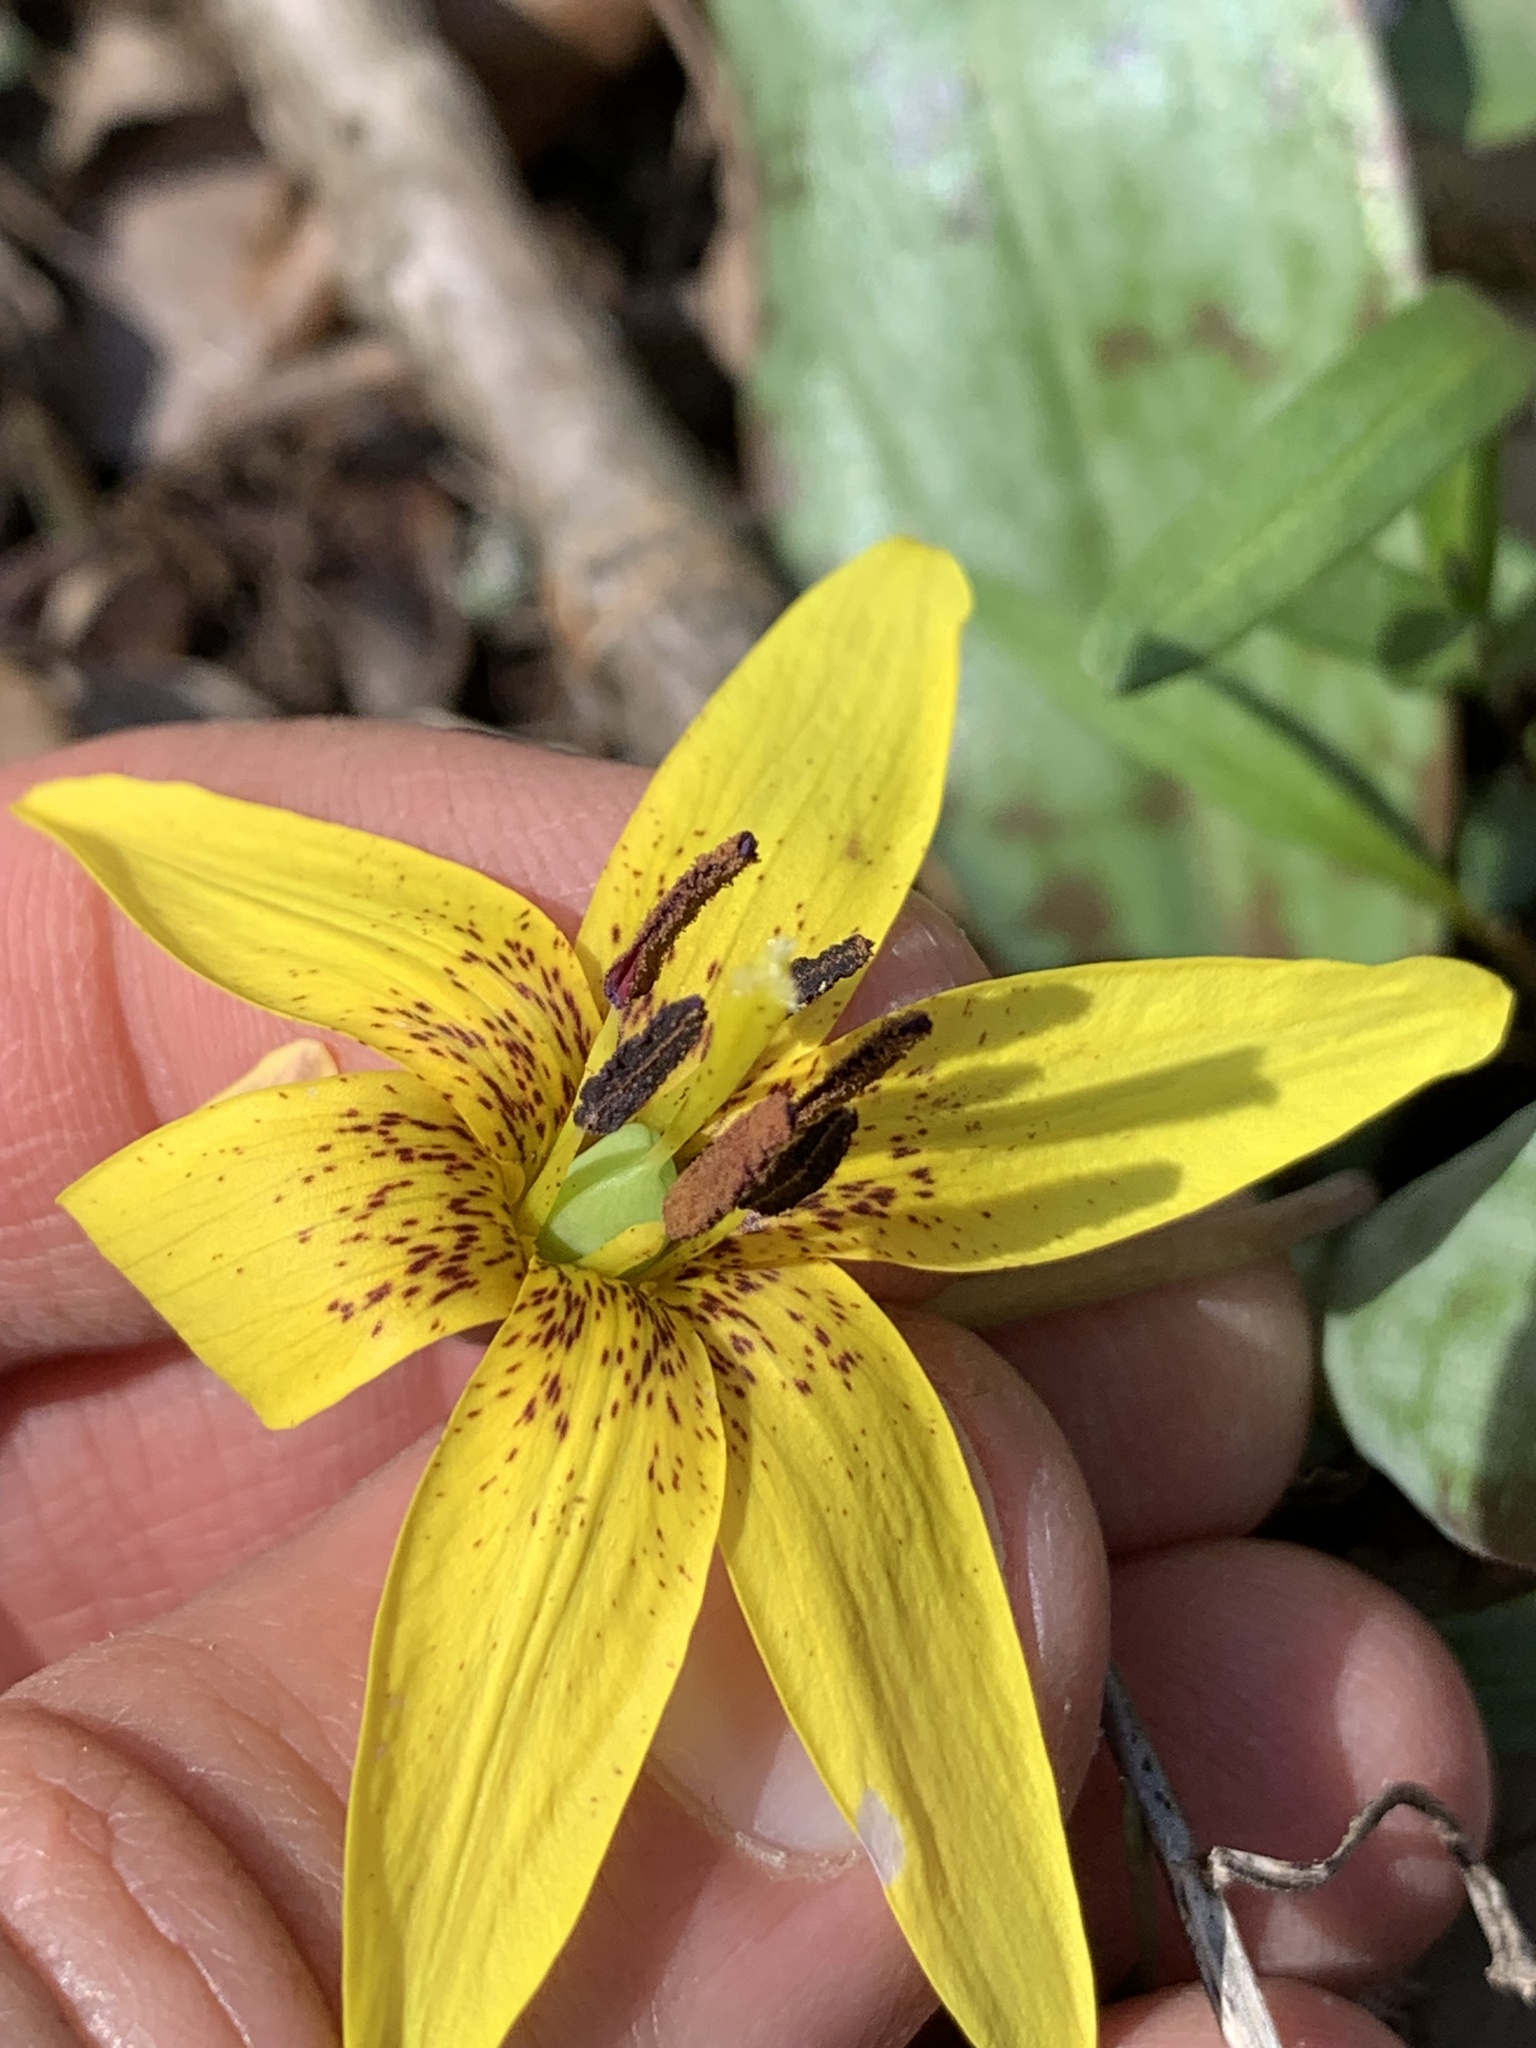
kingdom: Plantae
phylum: Tracheophyta
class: Liliopsida
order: Liliales
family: Liliaceae
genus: Erythronium
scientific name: Erythronium americanum
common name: Yellow adder's-tongue
